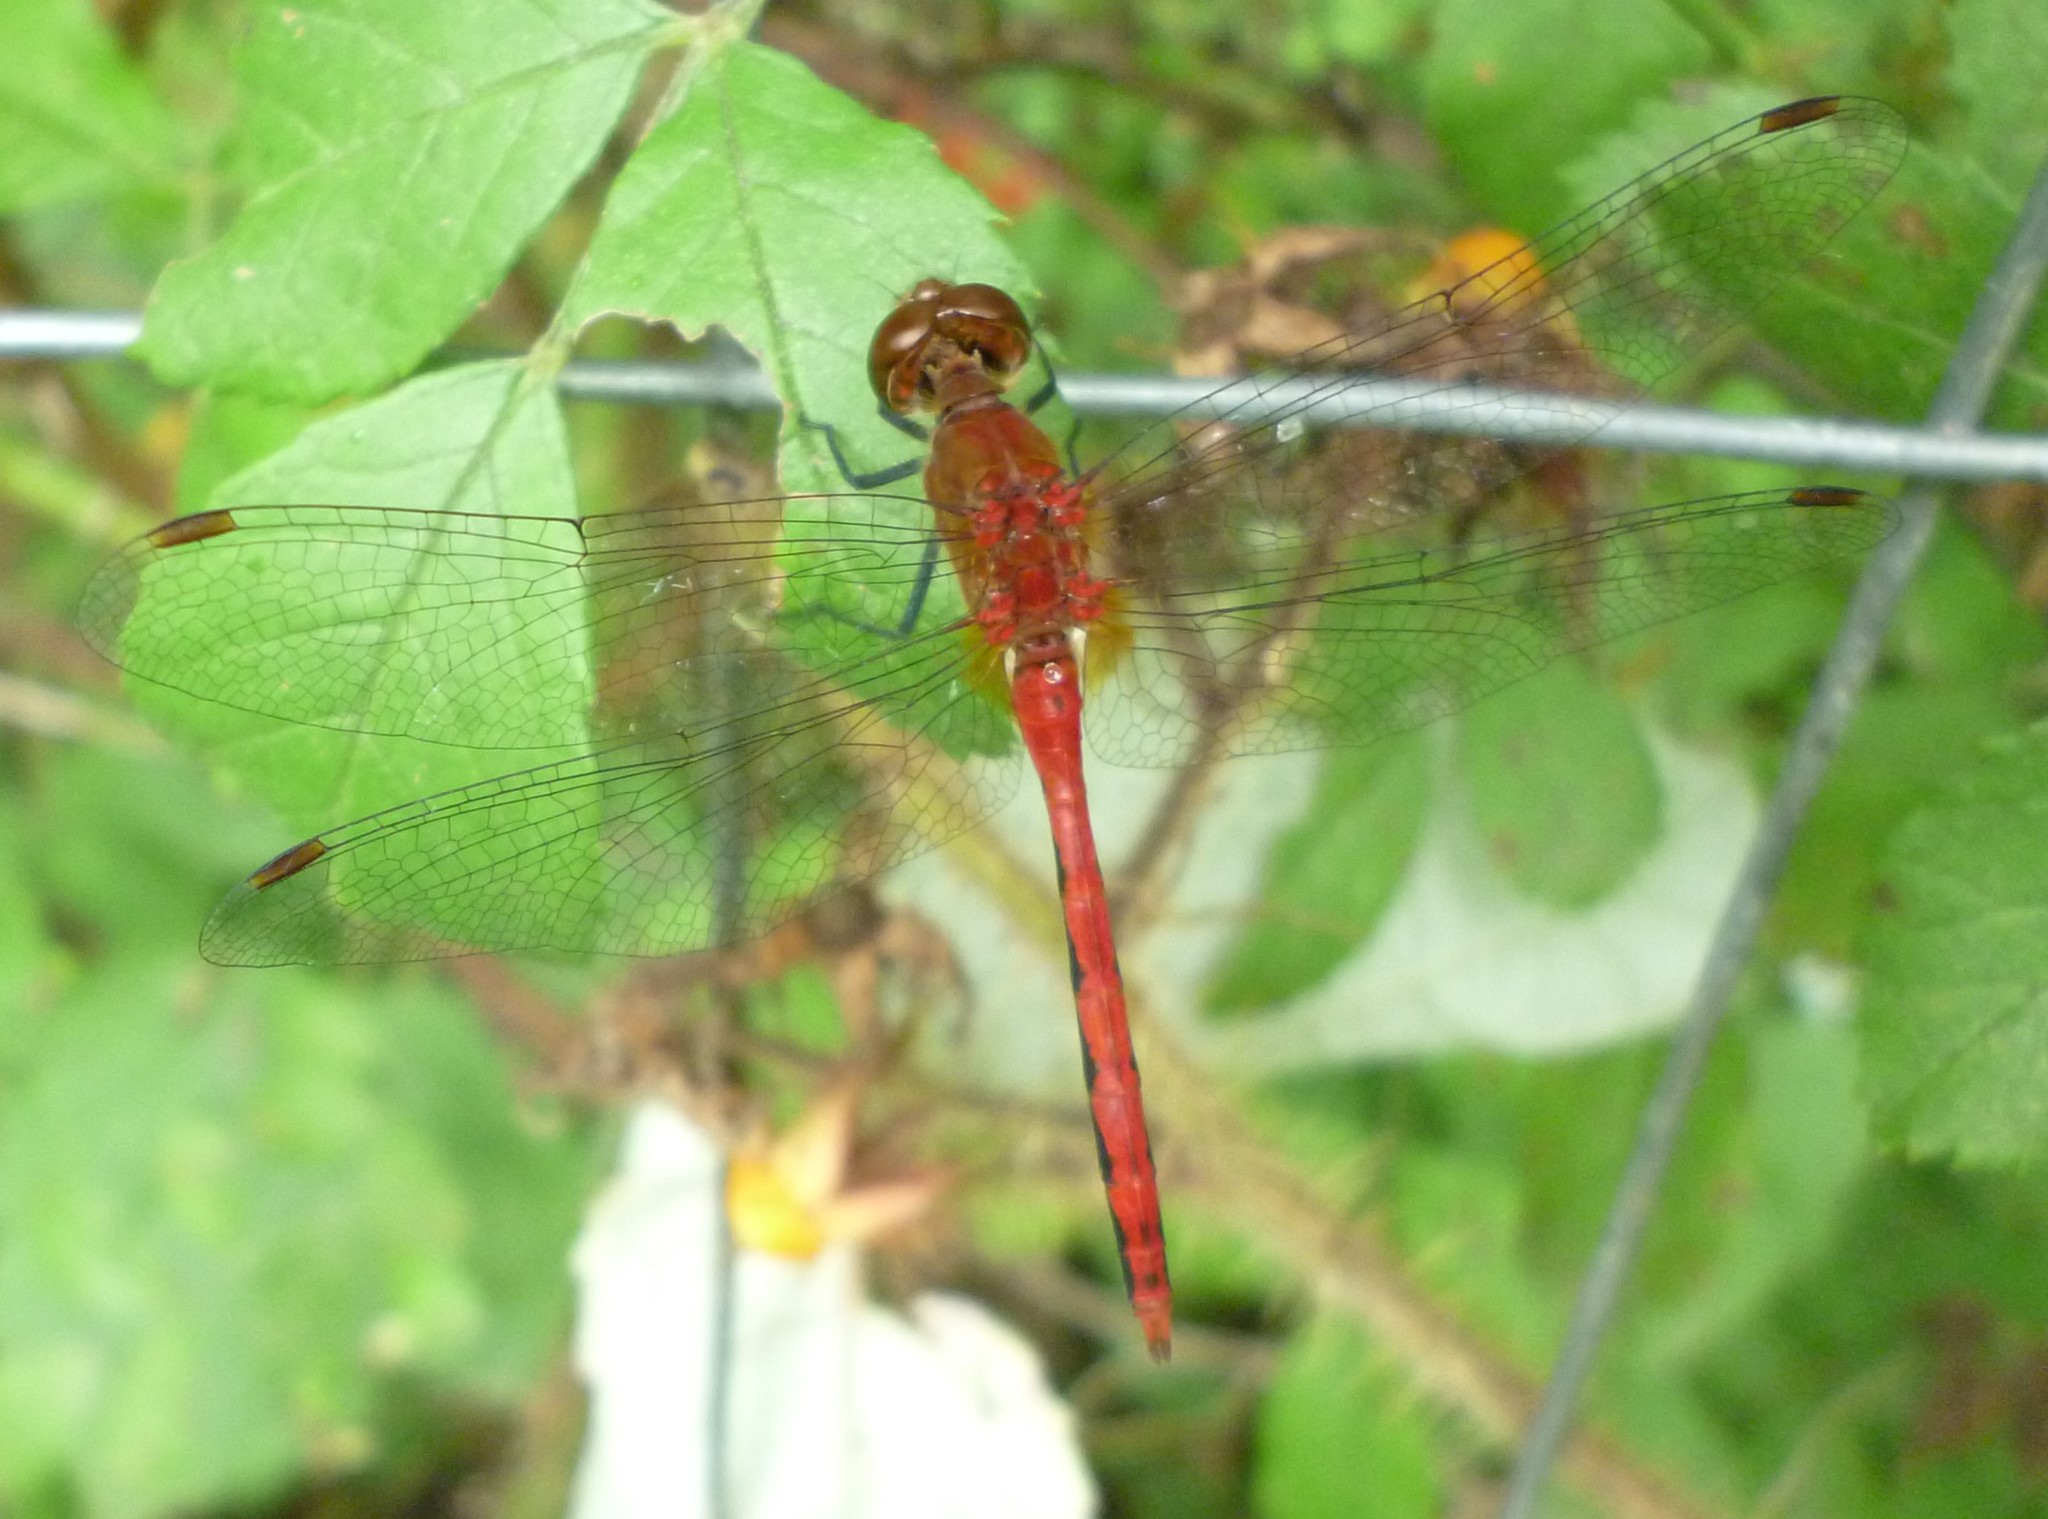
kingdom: Animalia
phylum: Arthropoda
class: Insecta
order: Odonata
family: Libellulidae
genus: Sympetrum
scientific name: Sympetrum
